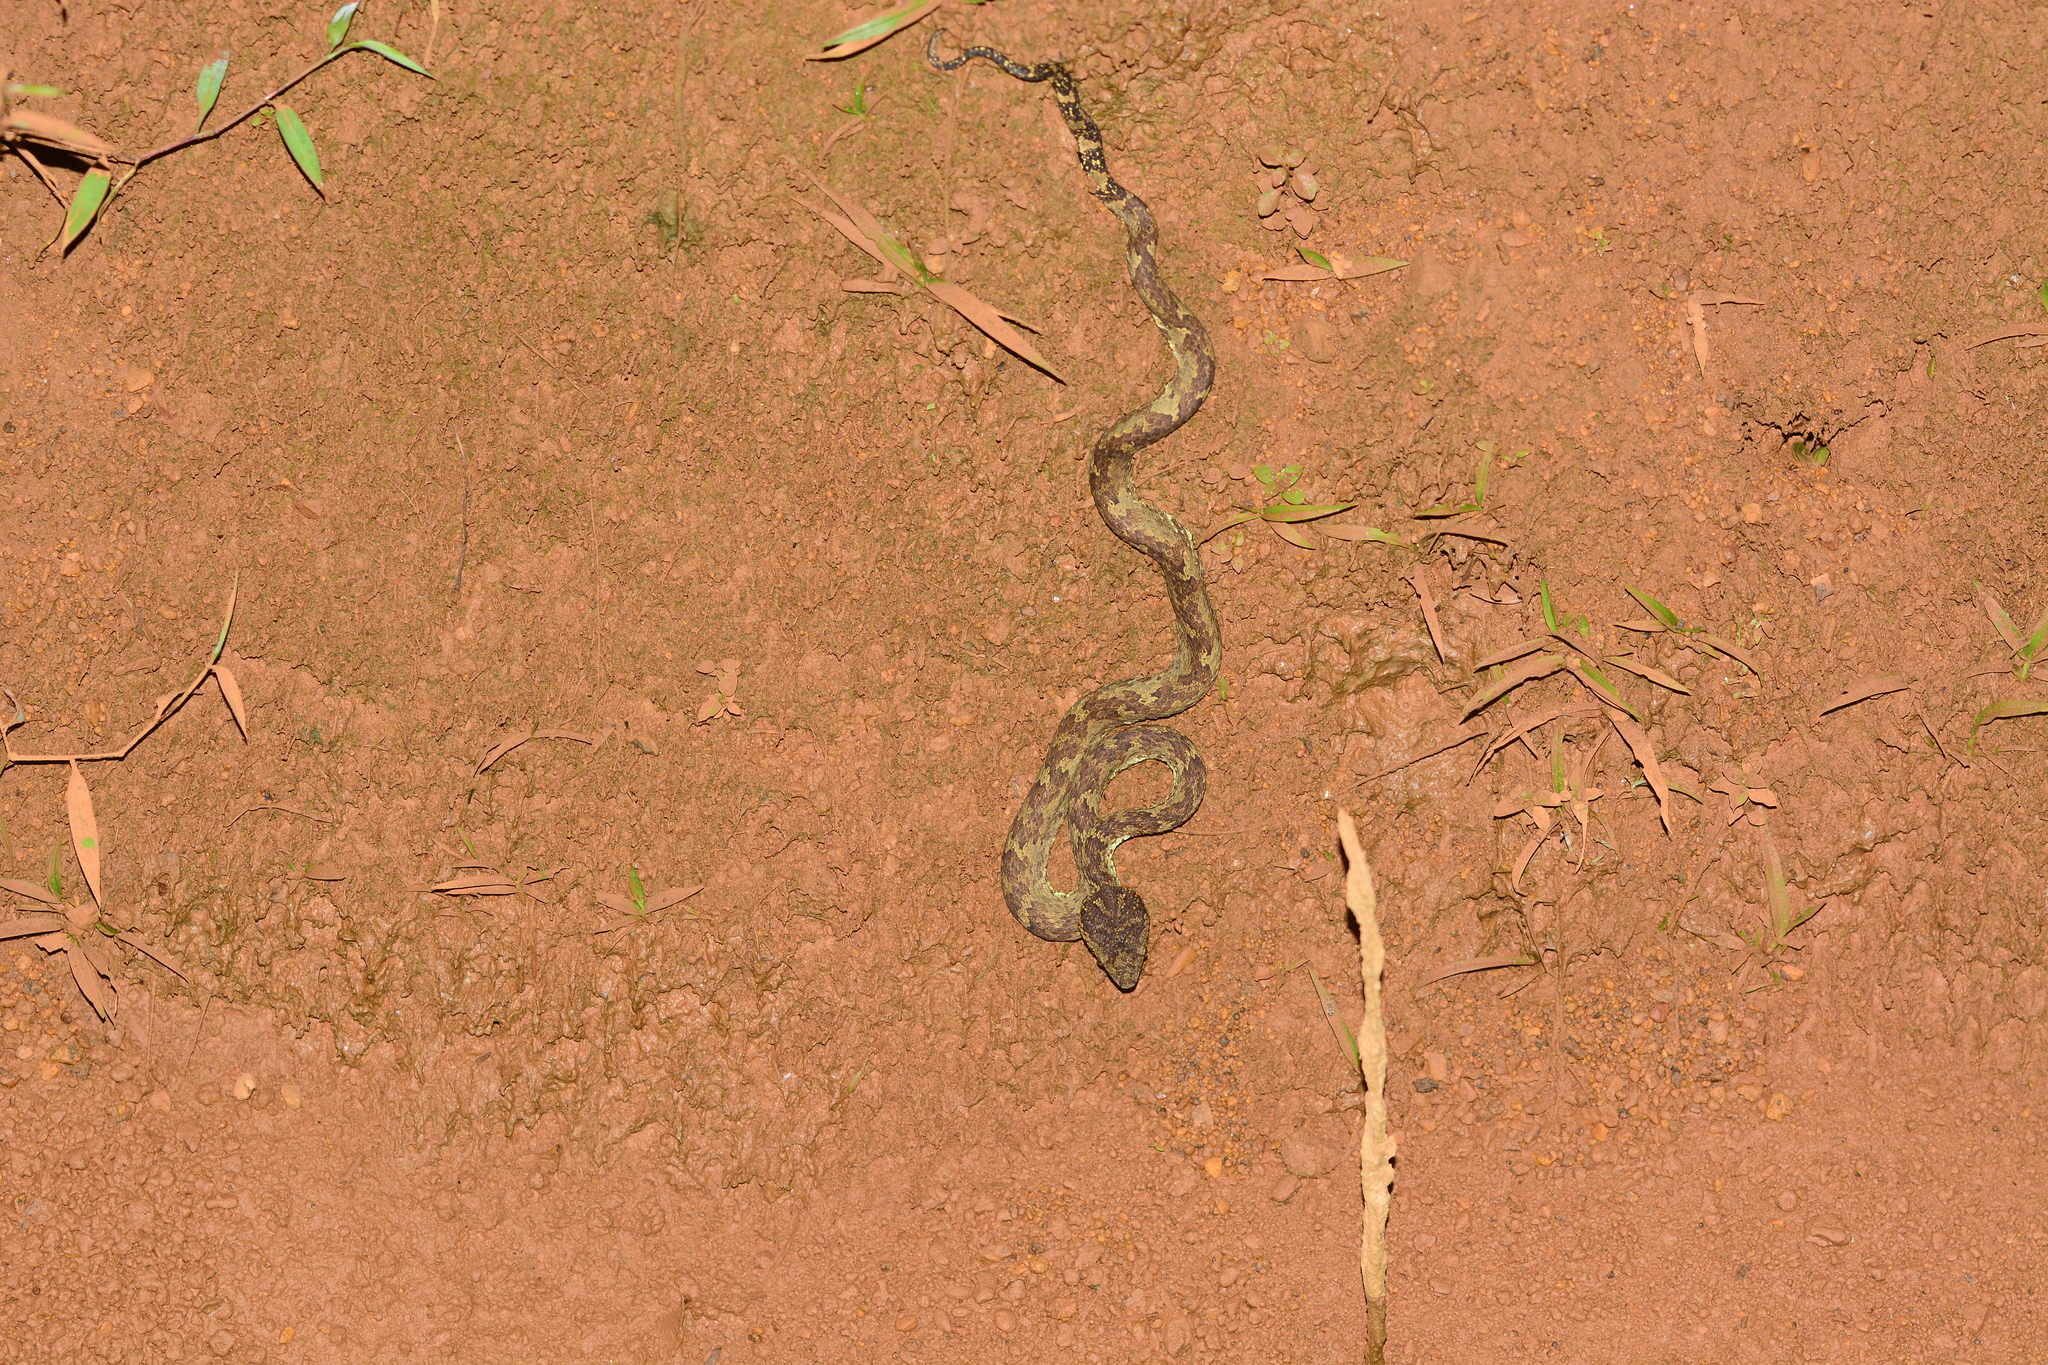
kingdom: Animalia
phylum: Chordata
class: Squamata
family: Viperidae
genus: Craspedocephalus
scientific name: Craspedocephalus malabaricus
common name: Malabarian pit viper
